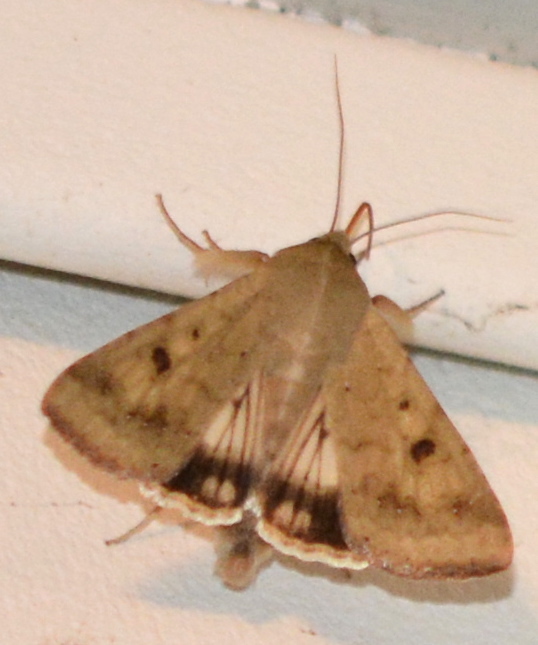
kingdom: Animalia
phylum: Arthropoda
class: Insecta
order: Lepidoptera
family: Noctuidae
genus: Helicoverpa
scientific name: Helicoverpa zea
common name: Bollworm
